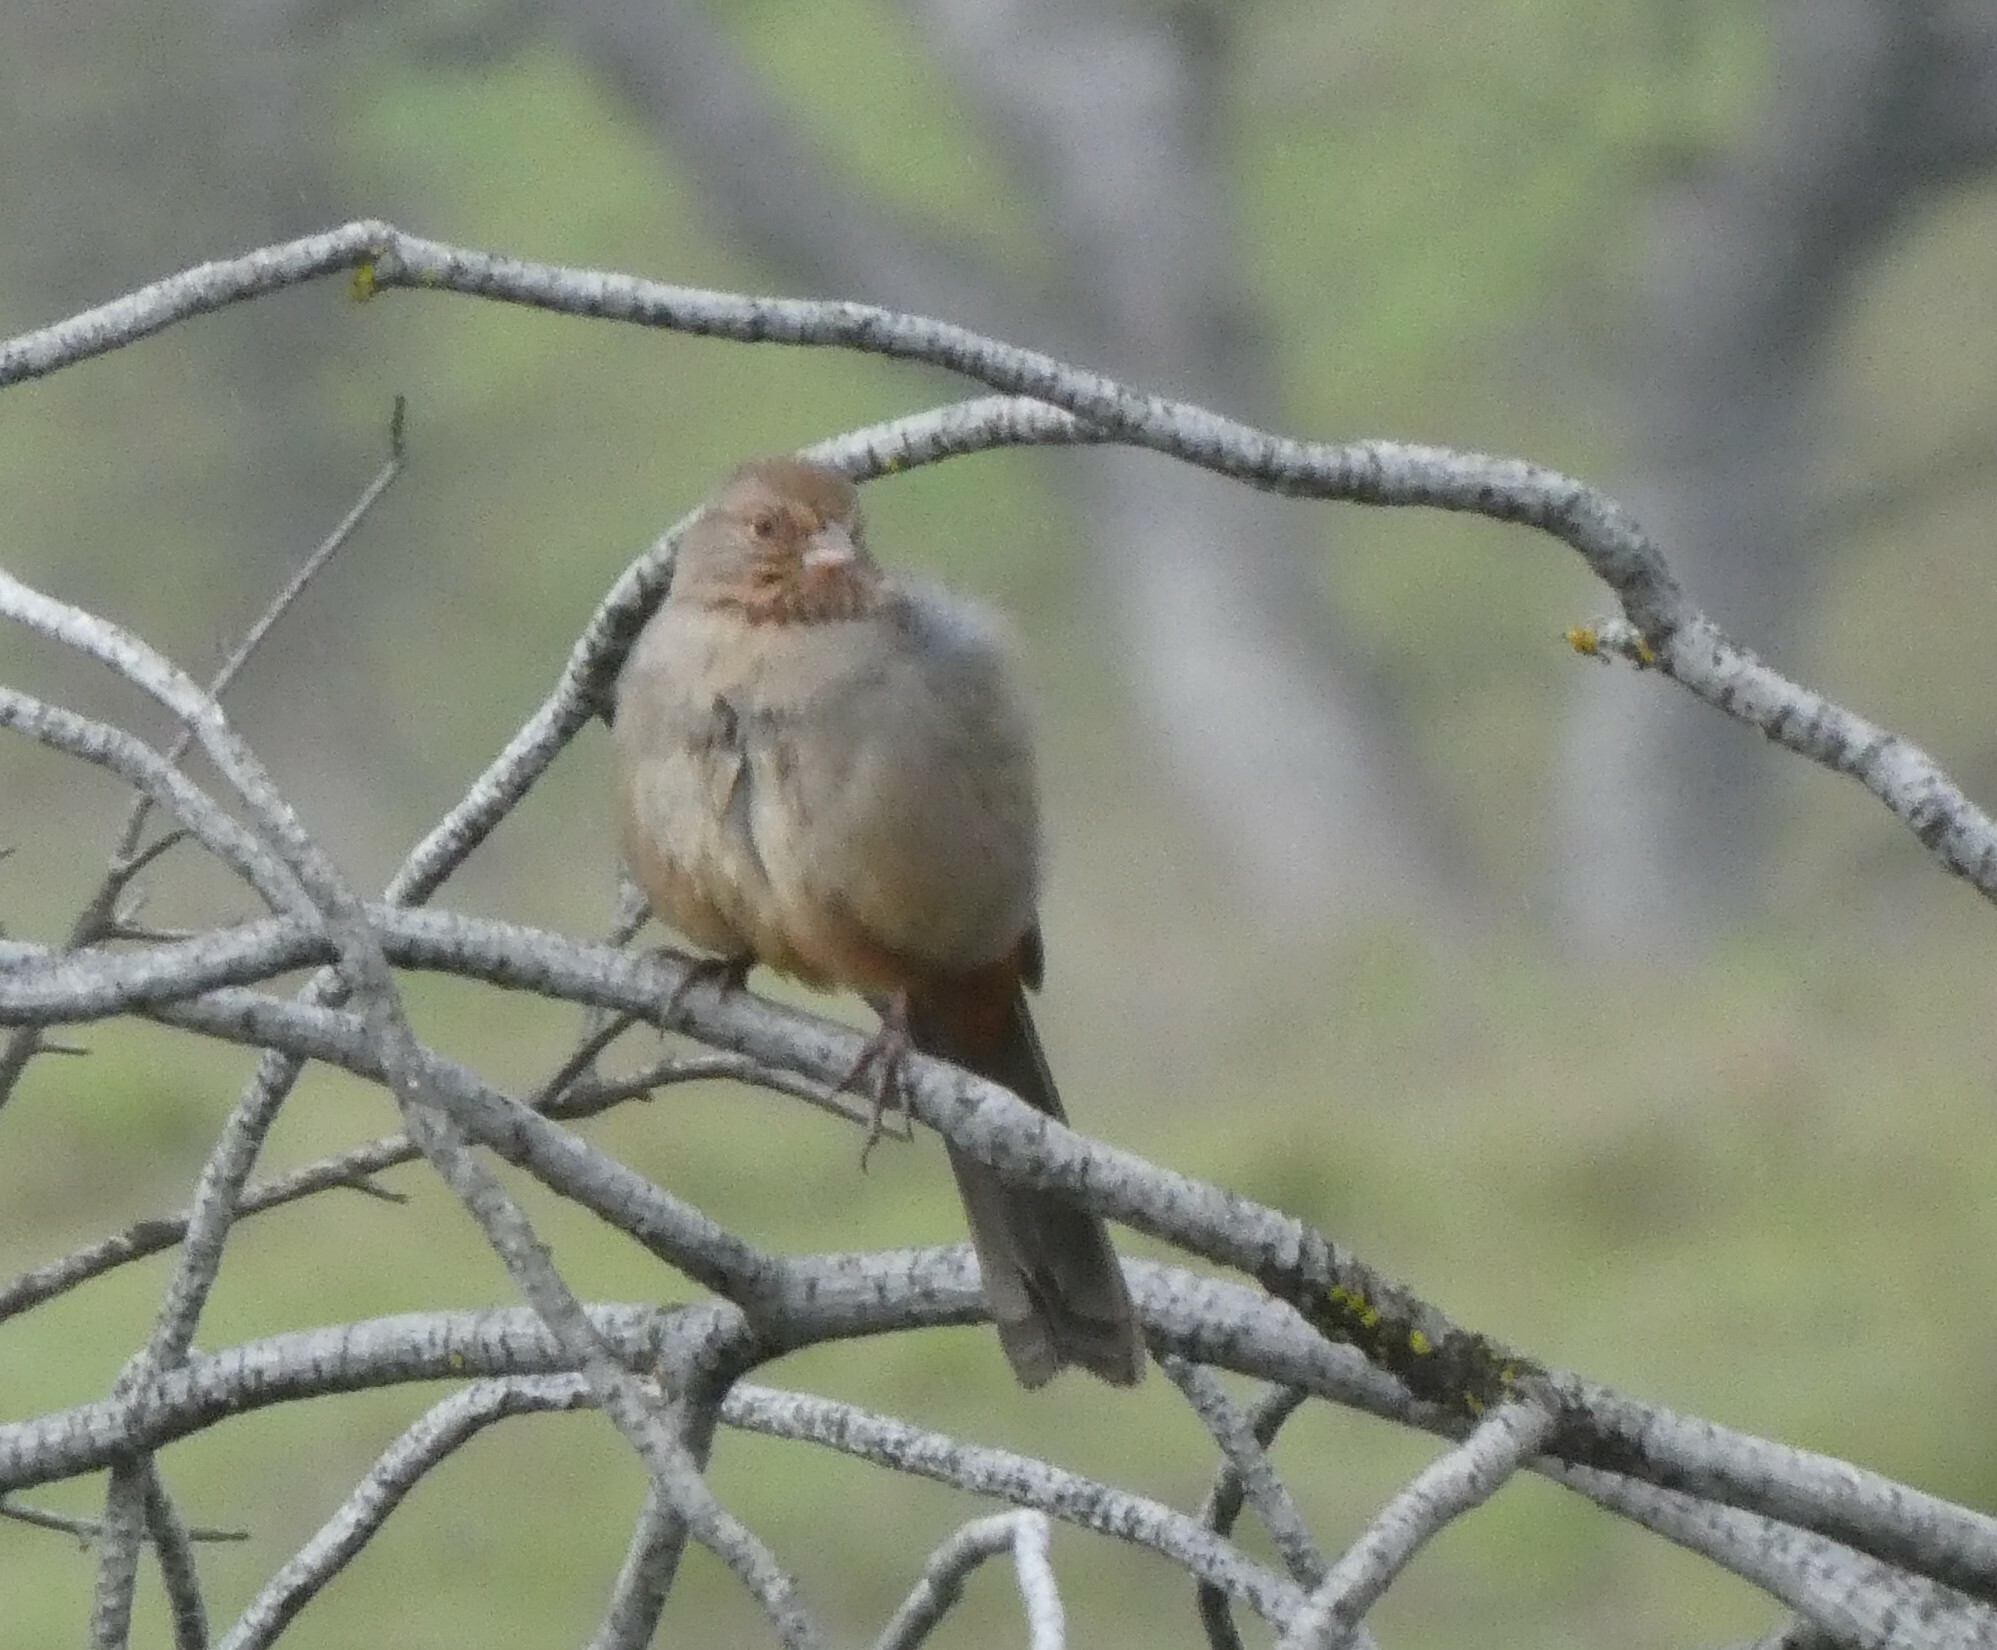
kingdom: Animalia
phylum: Chordata
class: Aves
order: Passeriformes
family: Passerellidae
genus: Melozone
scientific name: Melozone crissalis
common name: California towhee
